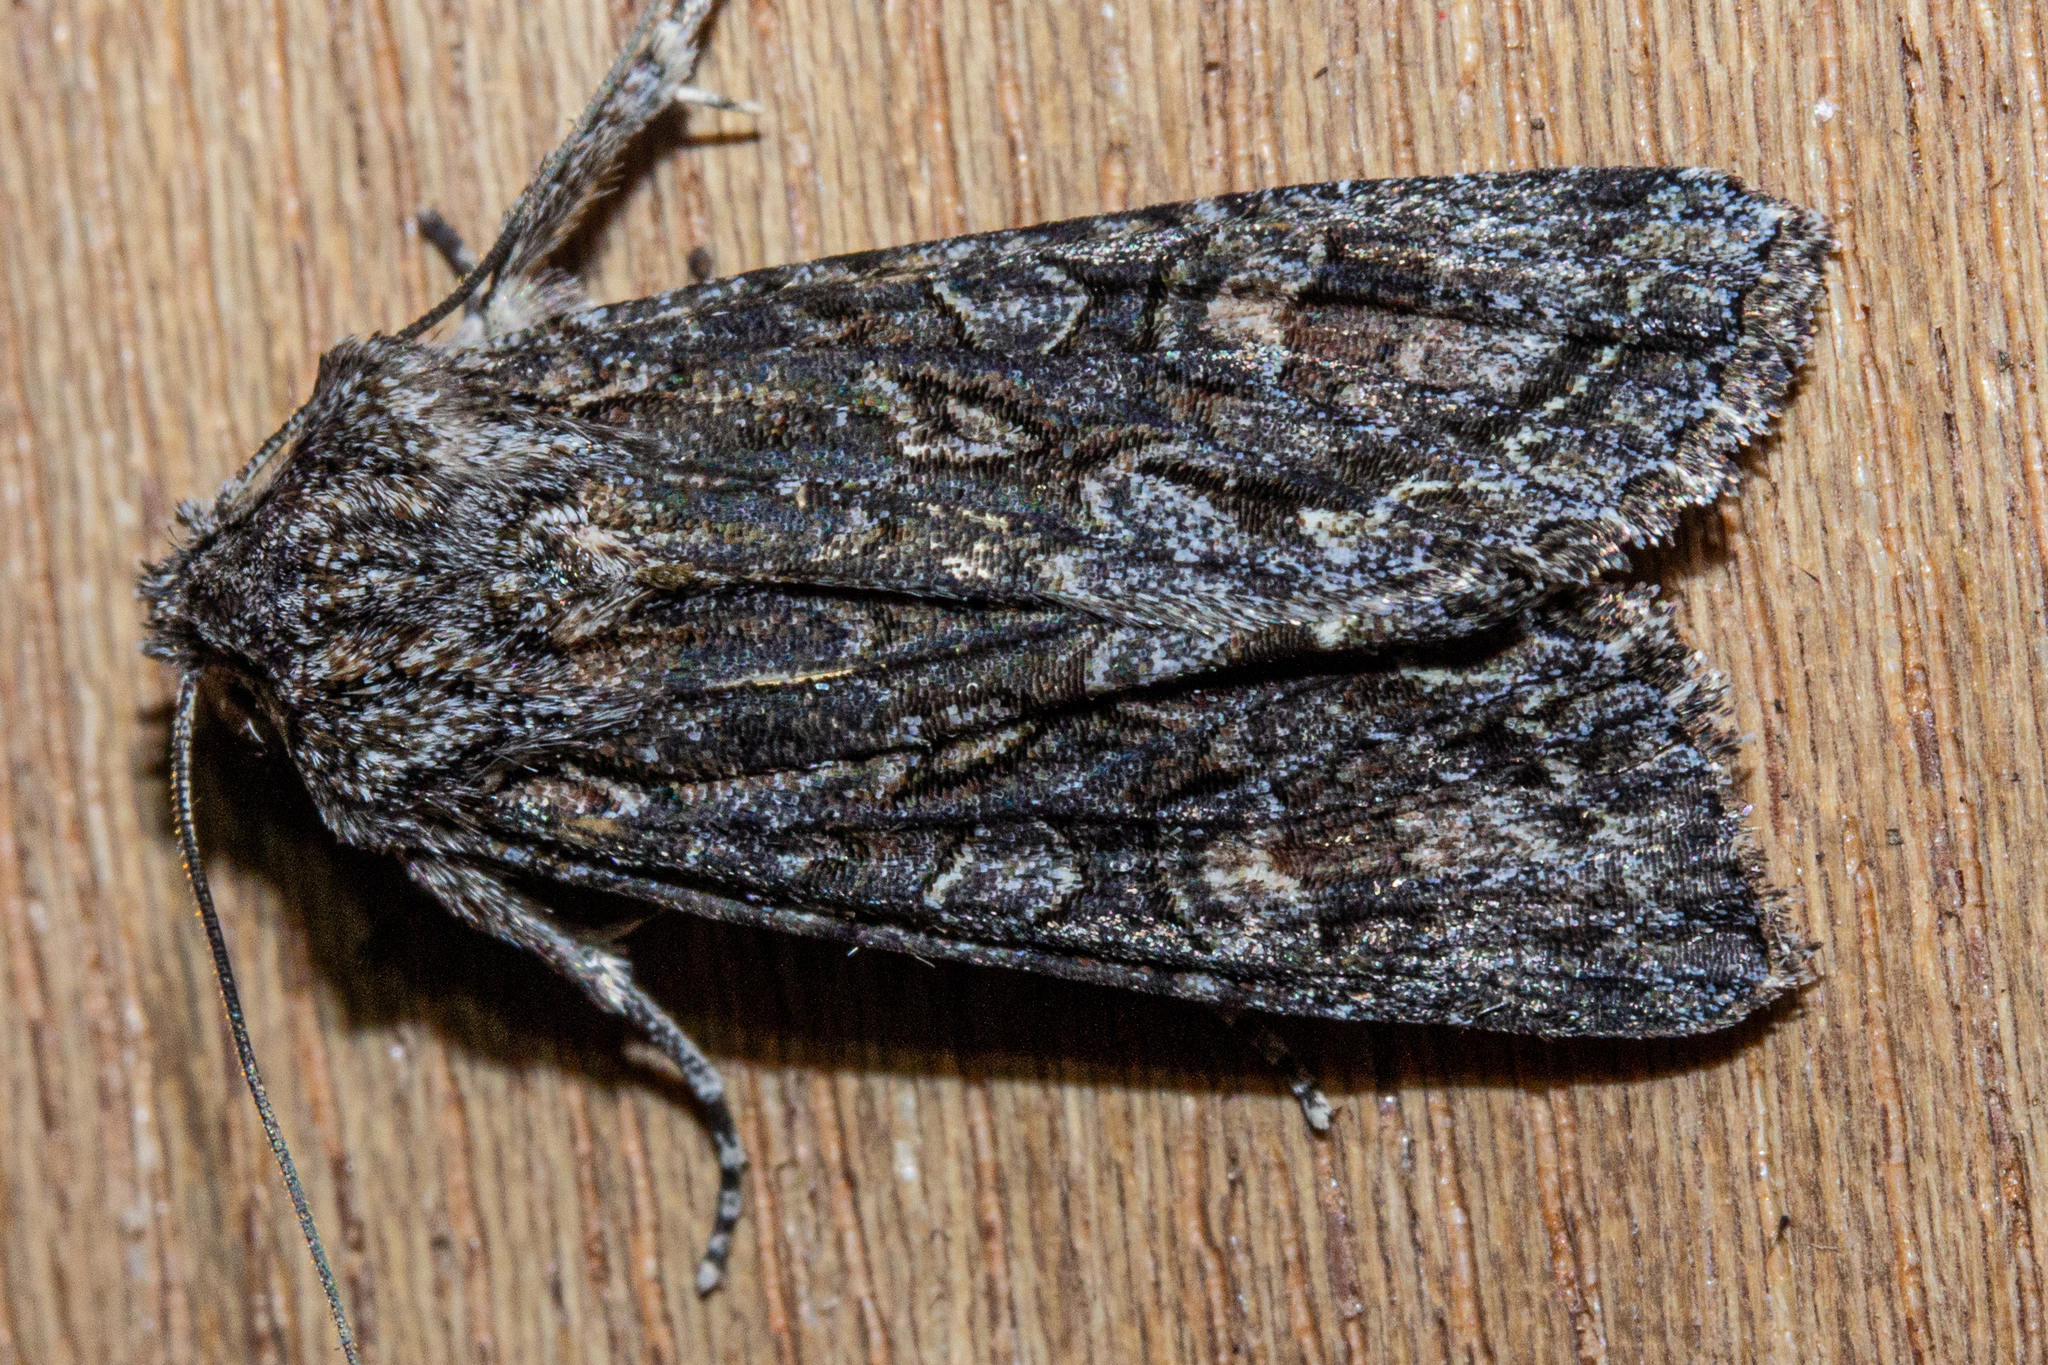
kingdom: Animalia
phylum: Arthropoda
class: Insecta
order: Lepidoptera
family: Noctuidae
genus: Ichneutica
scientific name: Ichneutica mutans
